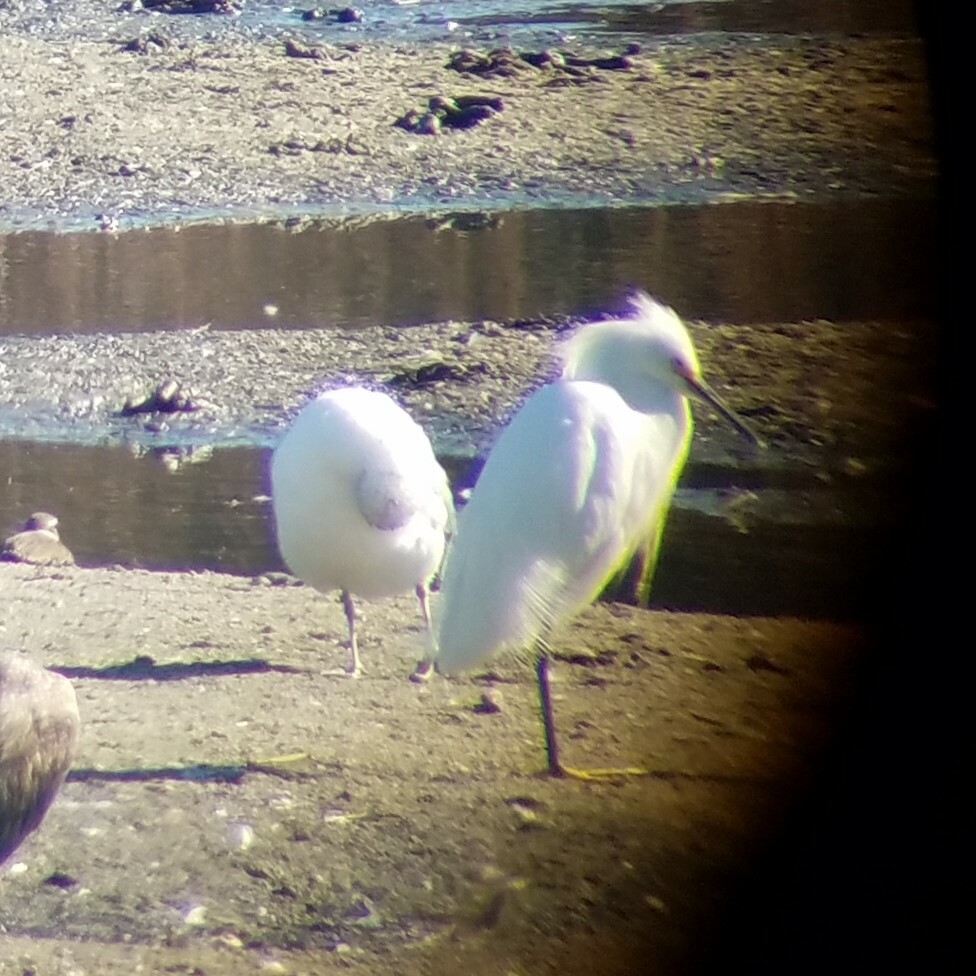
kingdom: Animalia
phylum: Chordata
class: Aves
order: Pelecaniformes
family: Ardeidae
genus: Egretta
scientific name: Egretta thula
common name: Snowy egret
